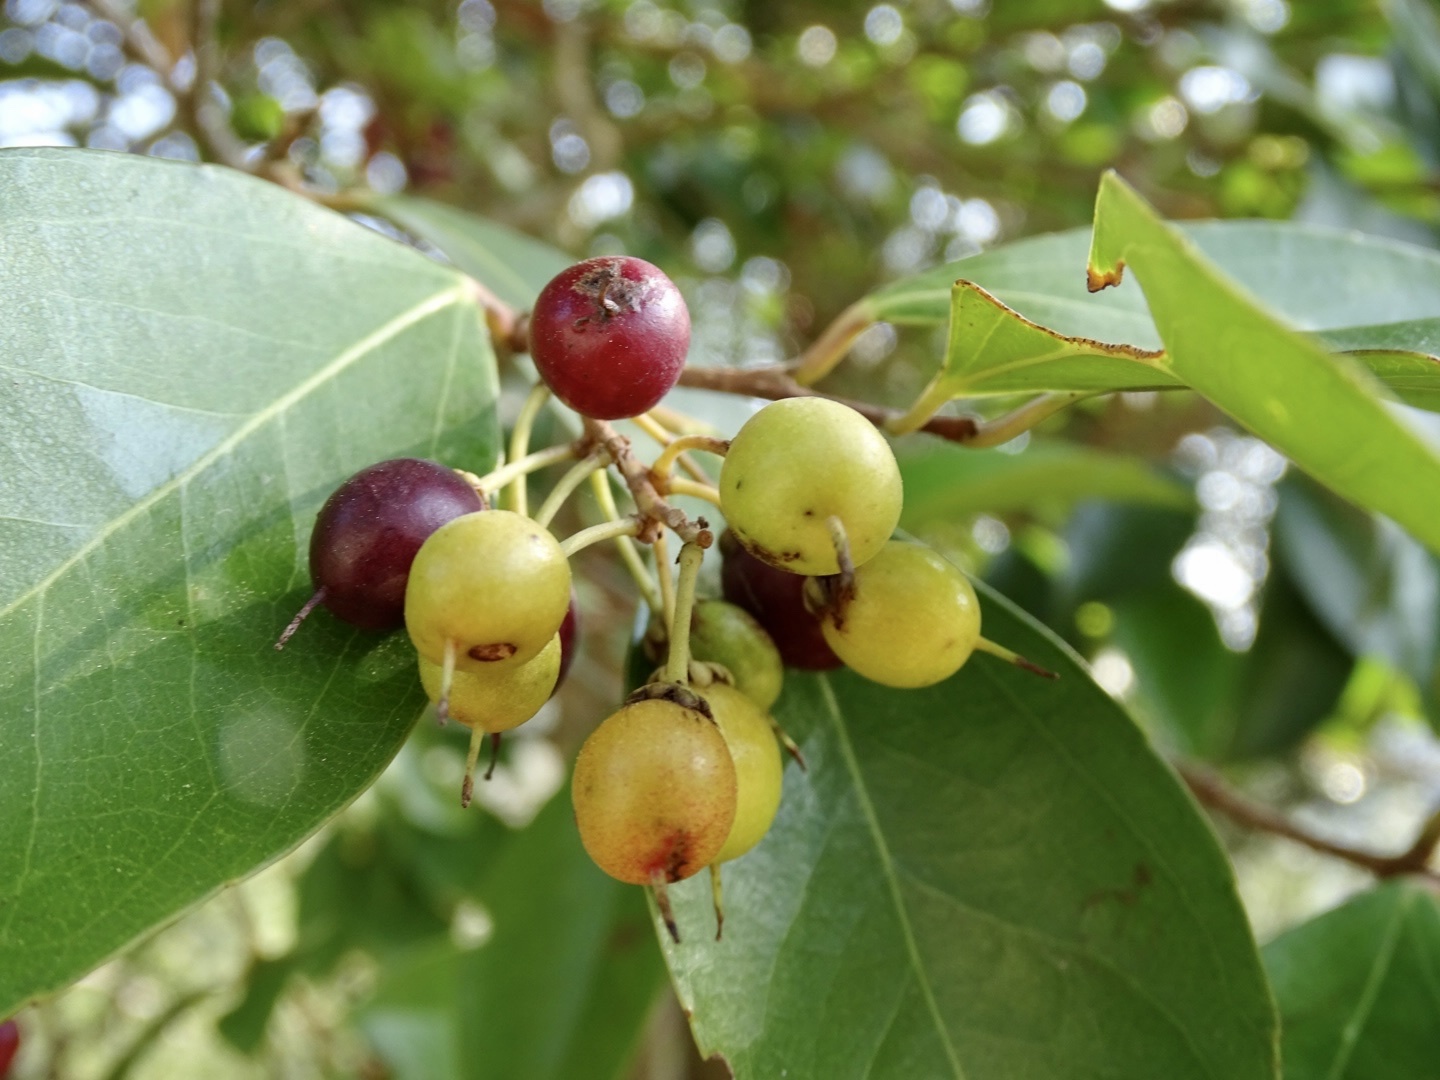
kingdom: Plantae
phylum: Tracheophyta
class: Magnoliopsida
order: Malpighiales
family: Salicaceae
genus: Scolopia
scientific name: Scolopia saeva
